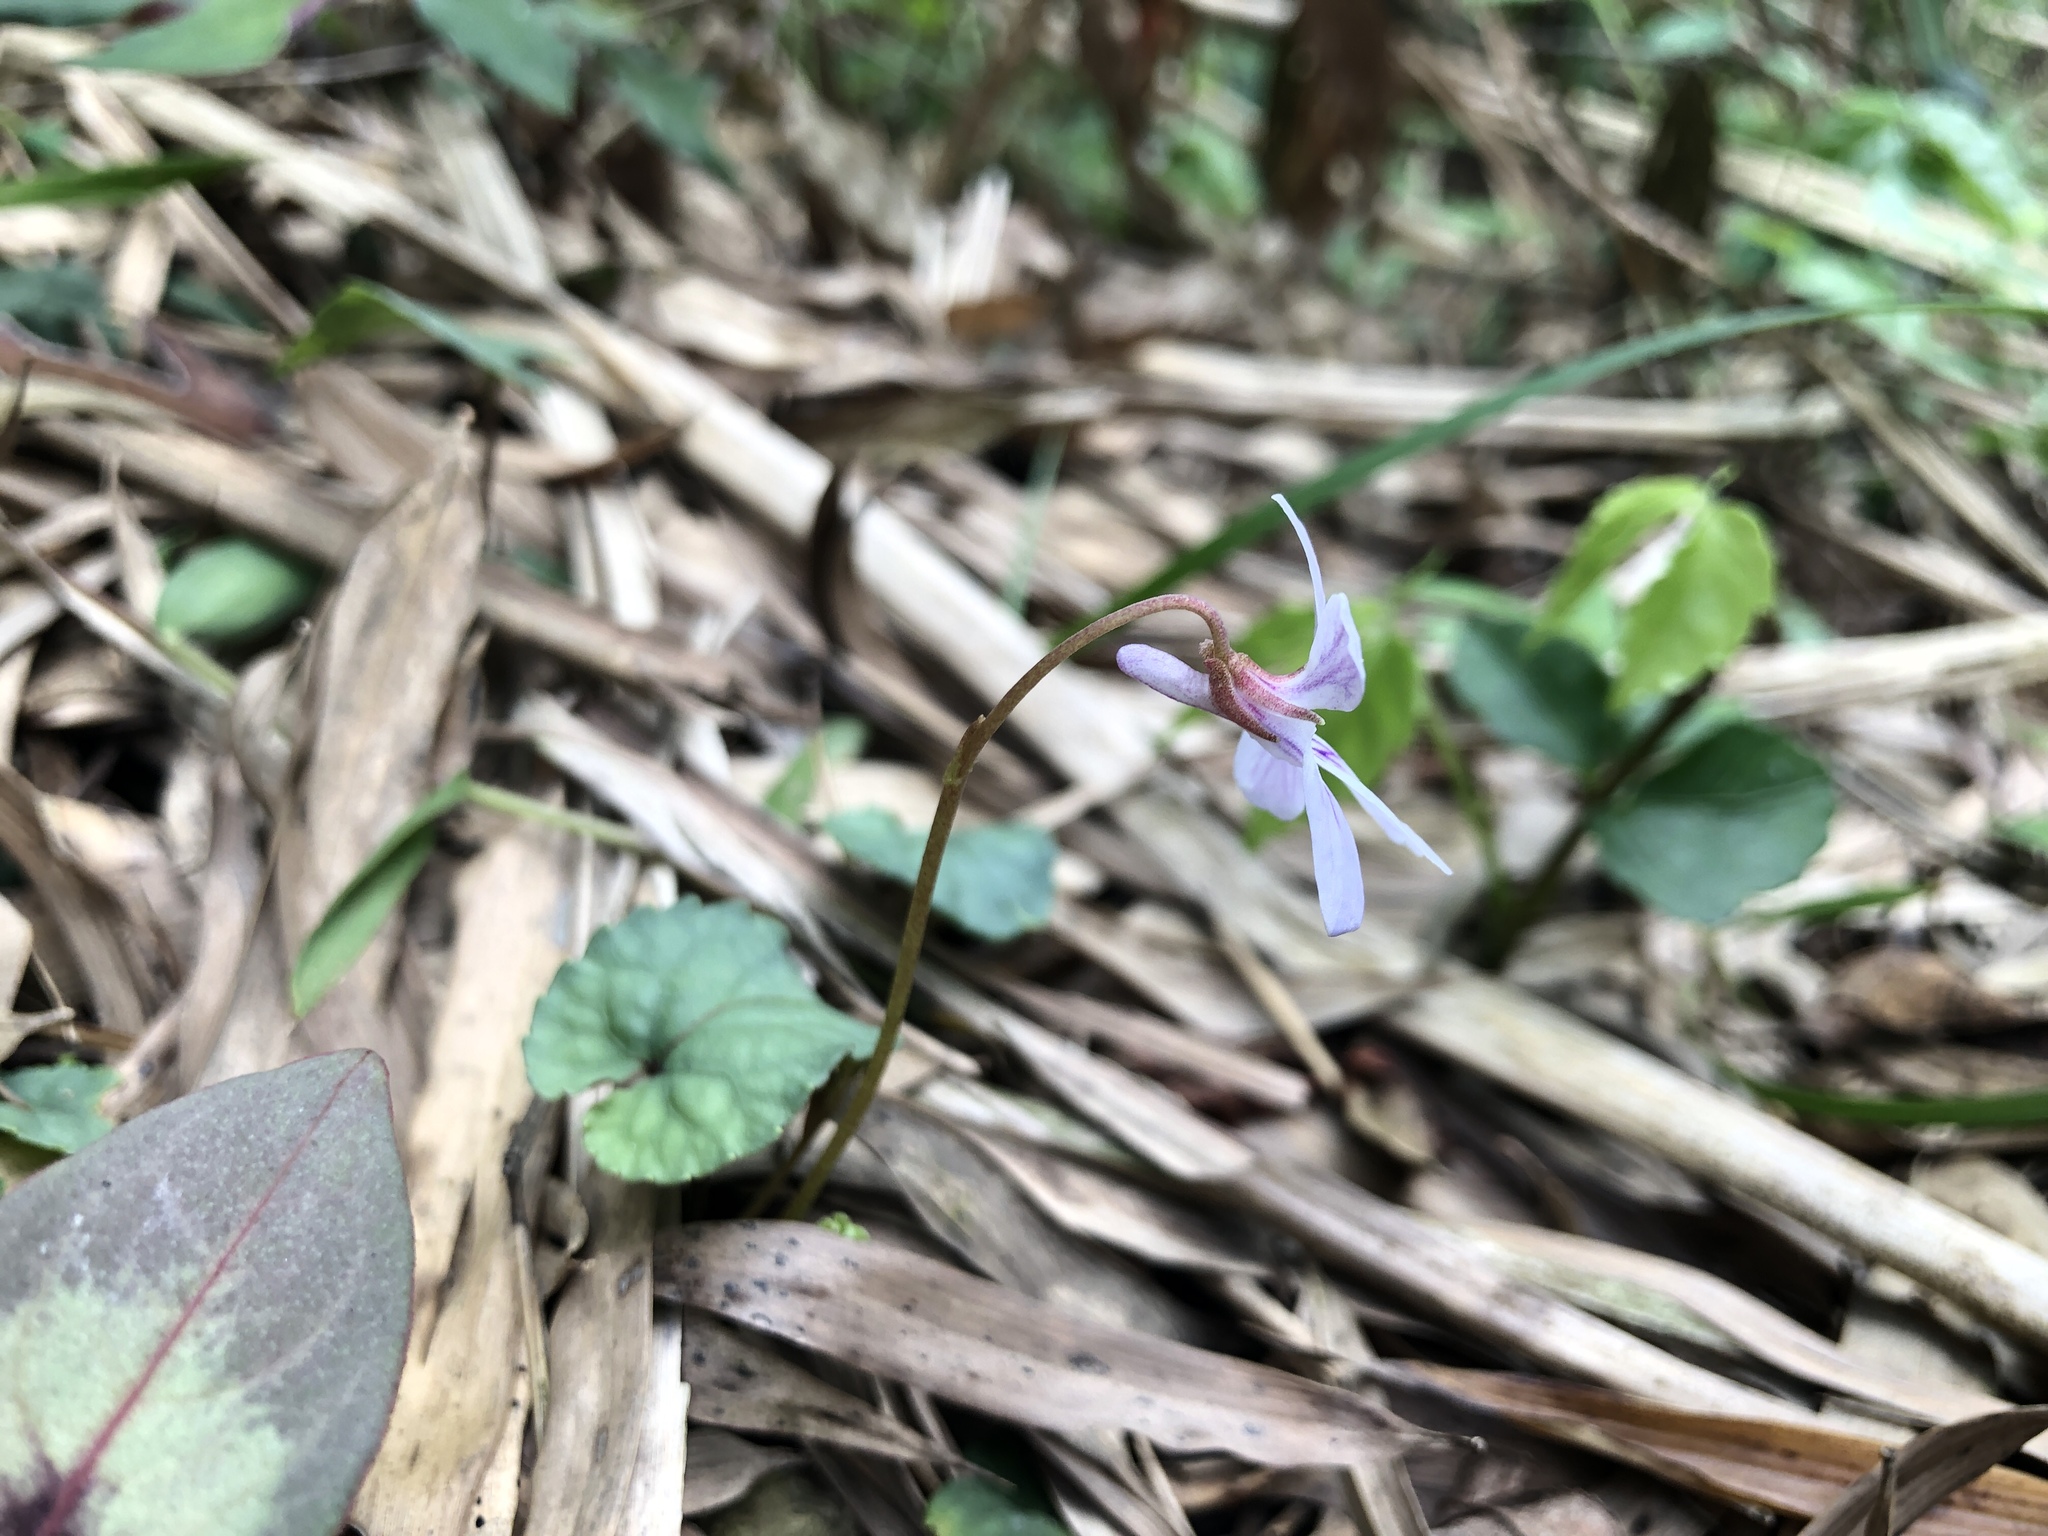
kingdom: Plantae
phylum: Tracheophyta
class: Magnoliopsida
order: Malpighiales
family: Violaceae
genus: Viola
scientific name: Viola formosana
